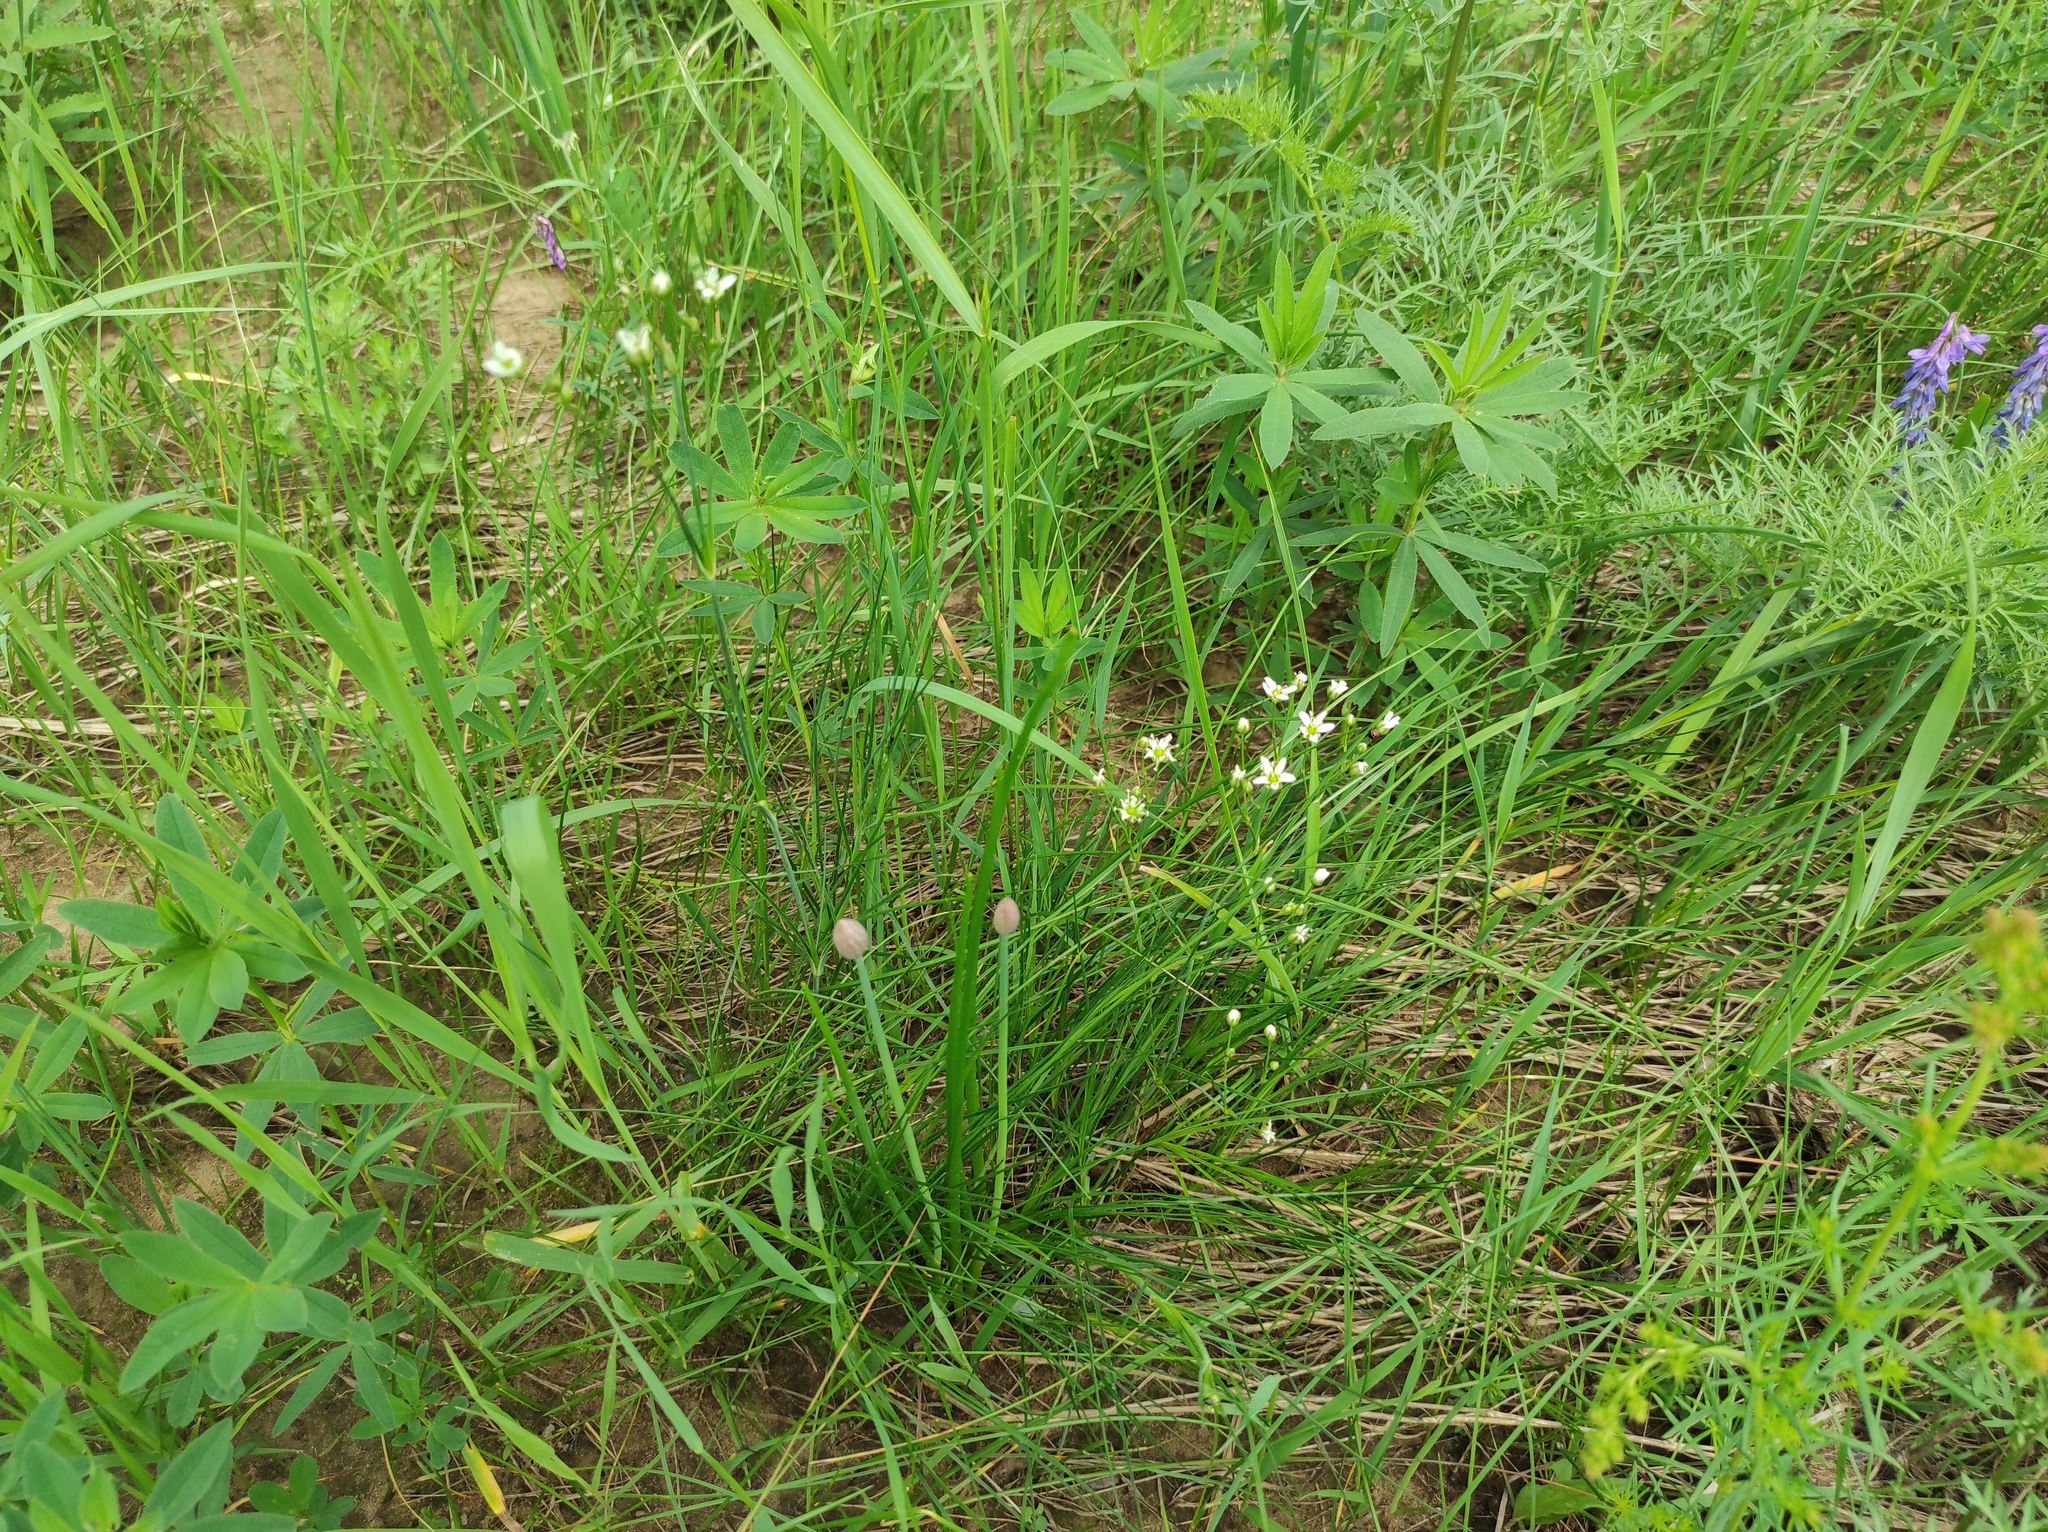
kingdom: Plantae
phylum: Tracheophyta
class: Magnoliopsida
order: Fabales
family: Fabaceae
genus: Trifolium
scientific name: Trifolium lupinaster
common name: Lupine clover
